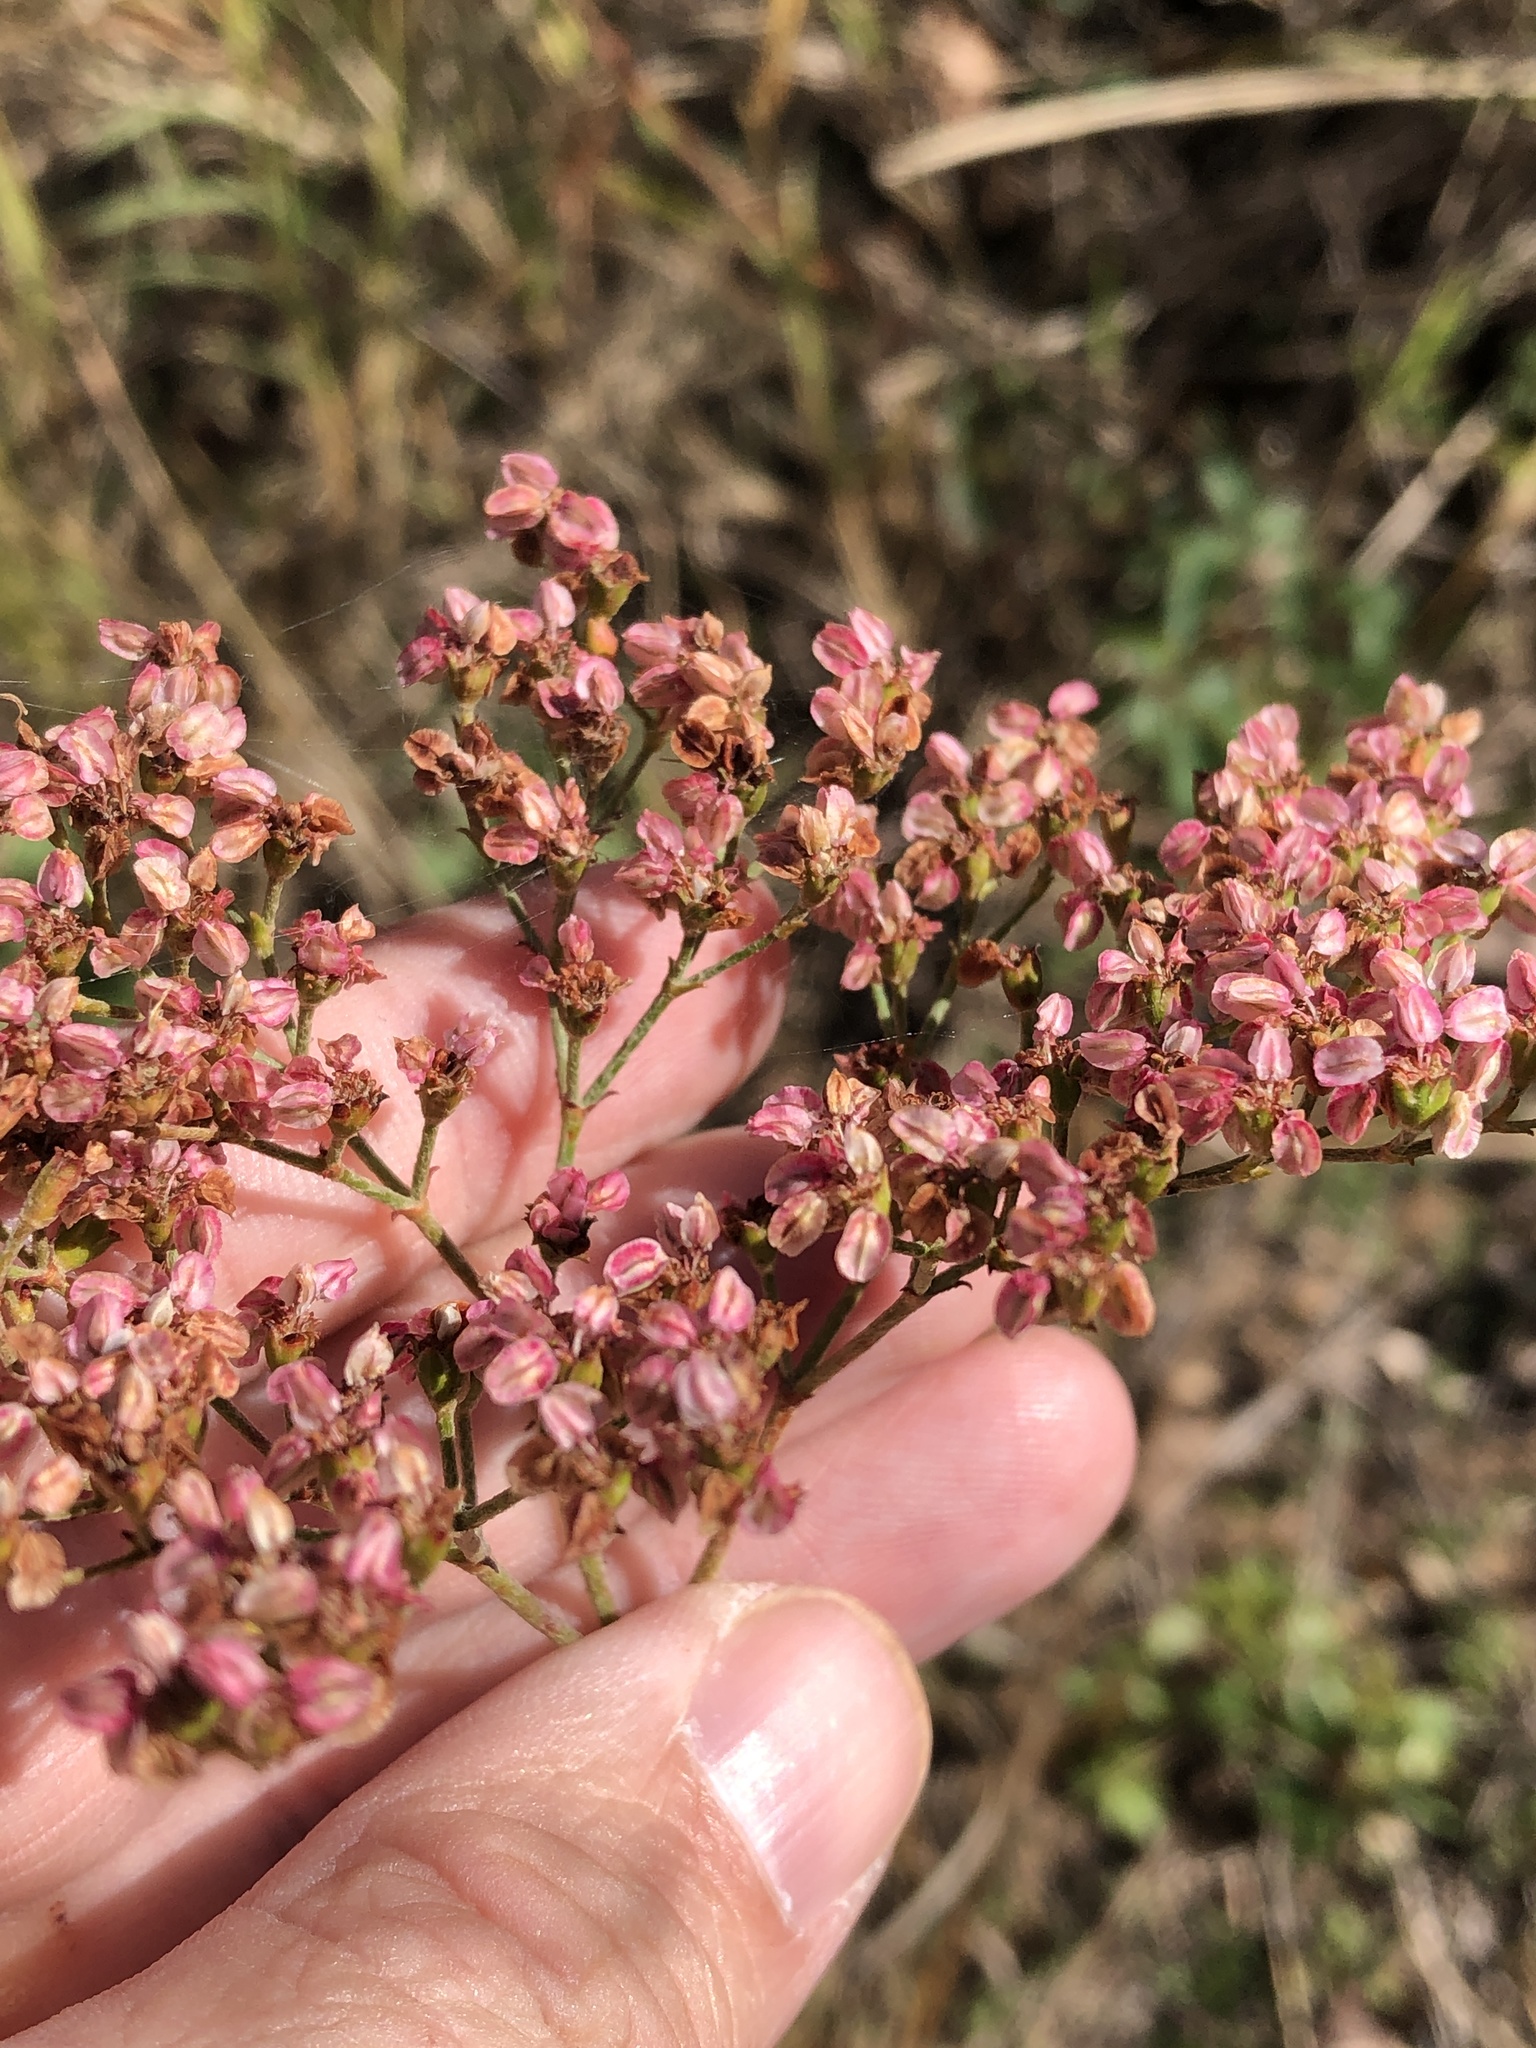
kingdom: Plantae
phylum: Tracheophyta
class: Magnoliopsida
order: Caryophyllales
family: Polygonaceae
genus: Eriogonum
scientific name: Eriogonum multiflorum
